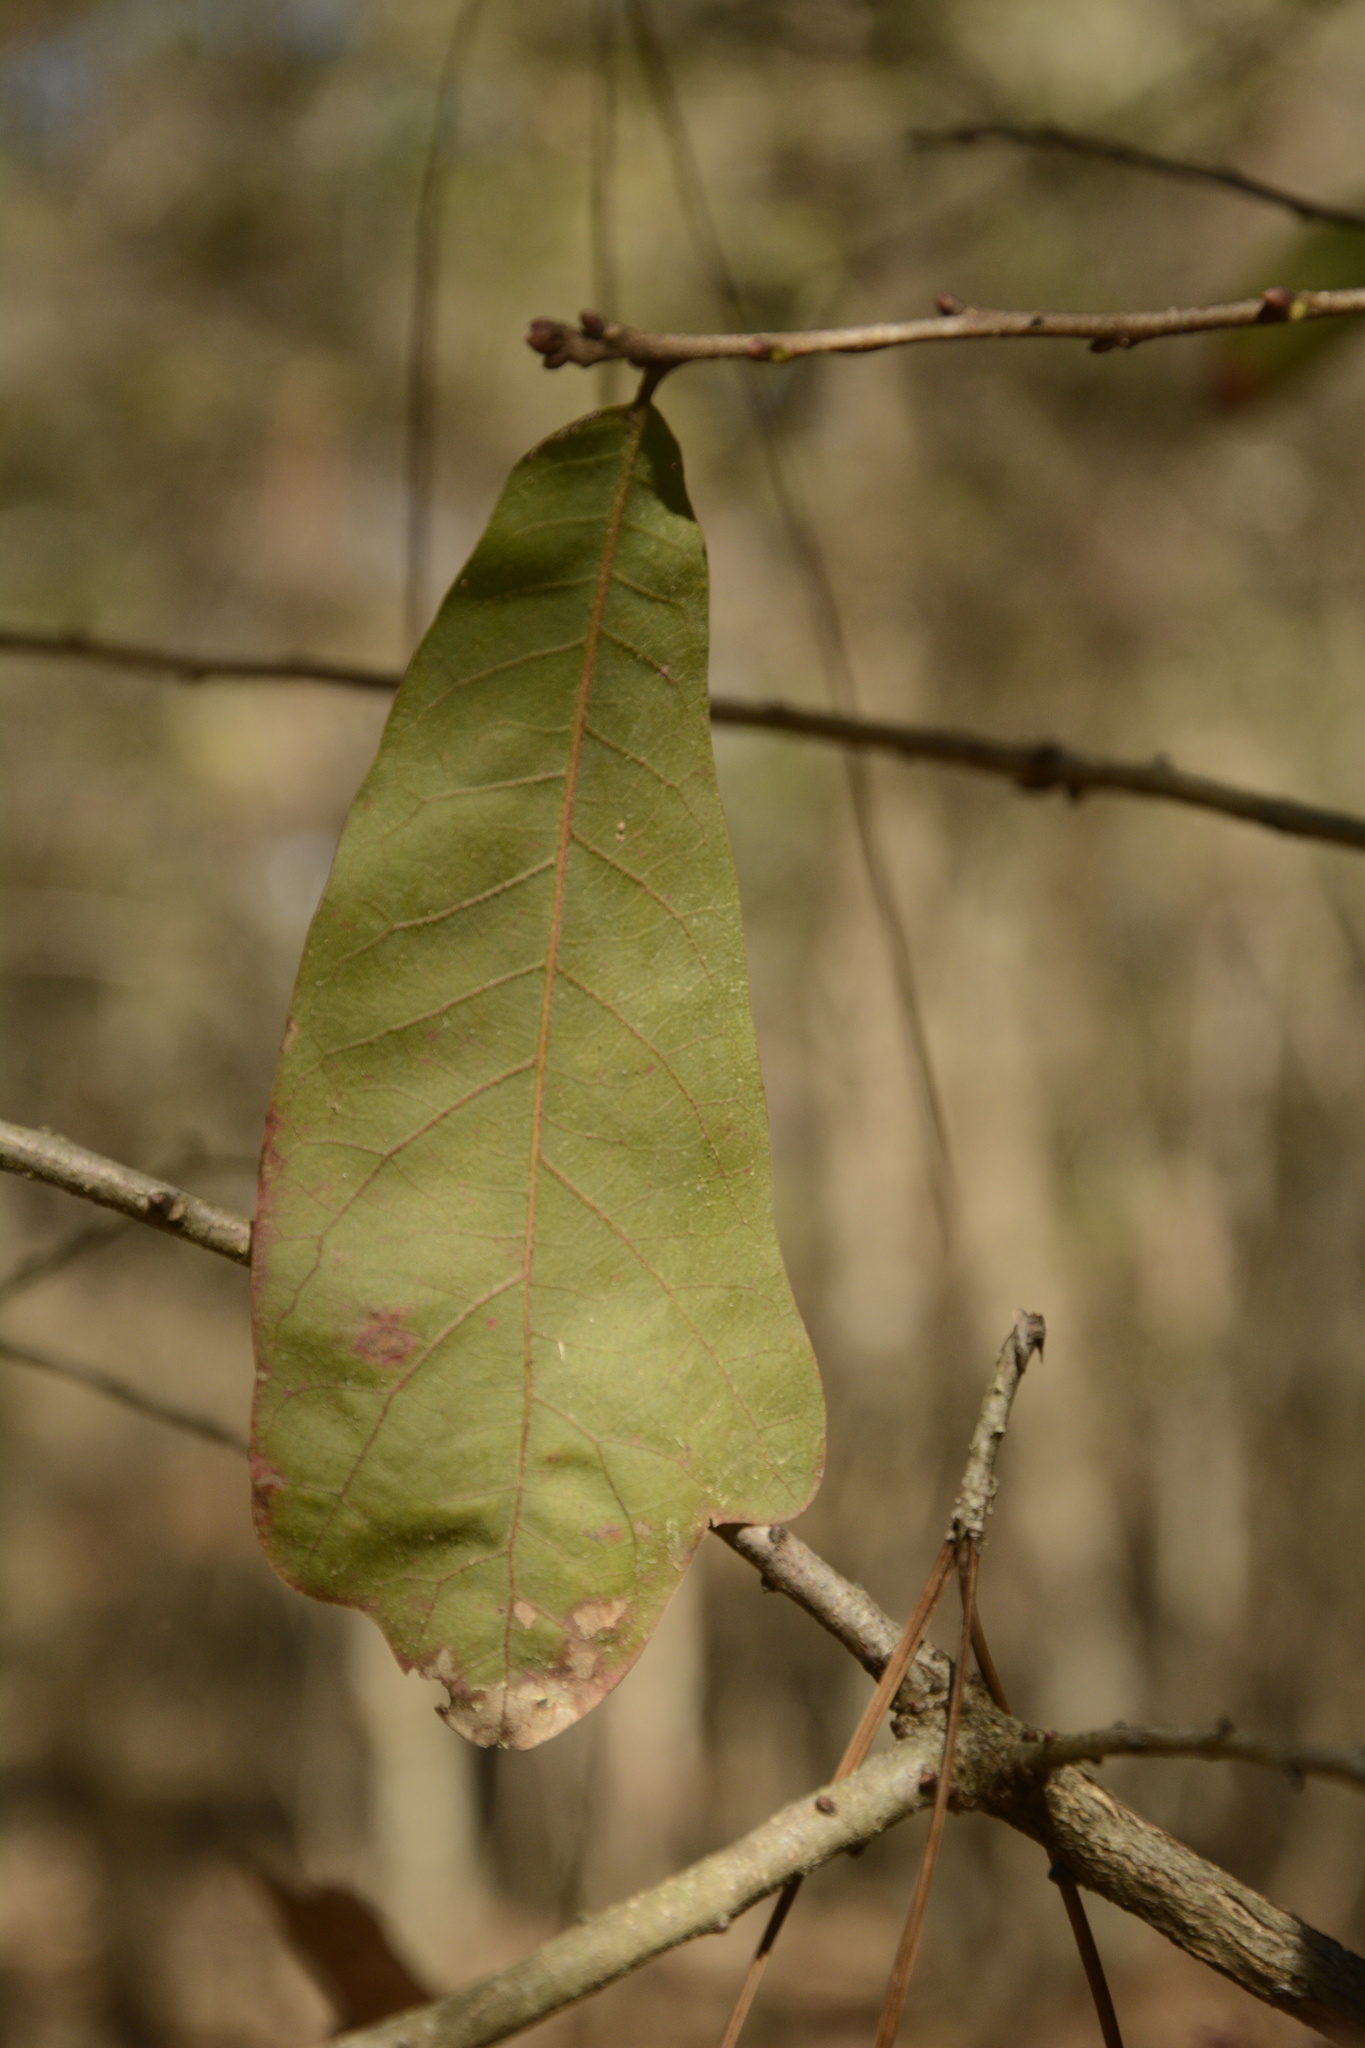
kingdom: Plantae
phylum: Tracheophyta
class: Magnoliopsida
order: Fagales
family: Fagaceae
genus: Quercus
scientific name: Quercus chapmanii
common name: Chapman oak
